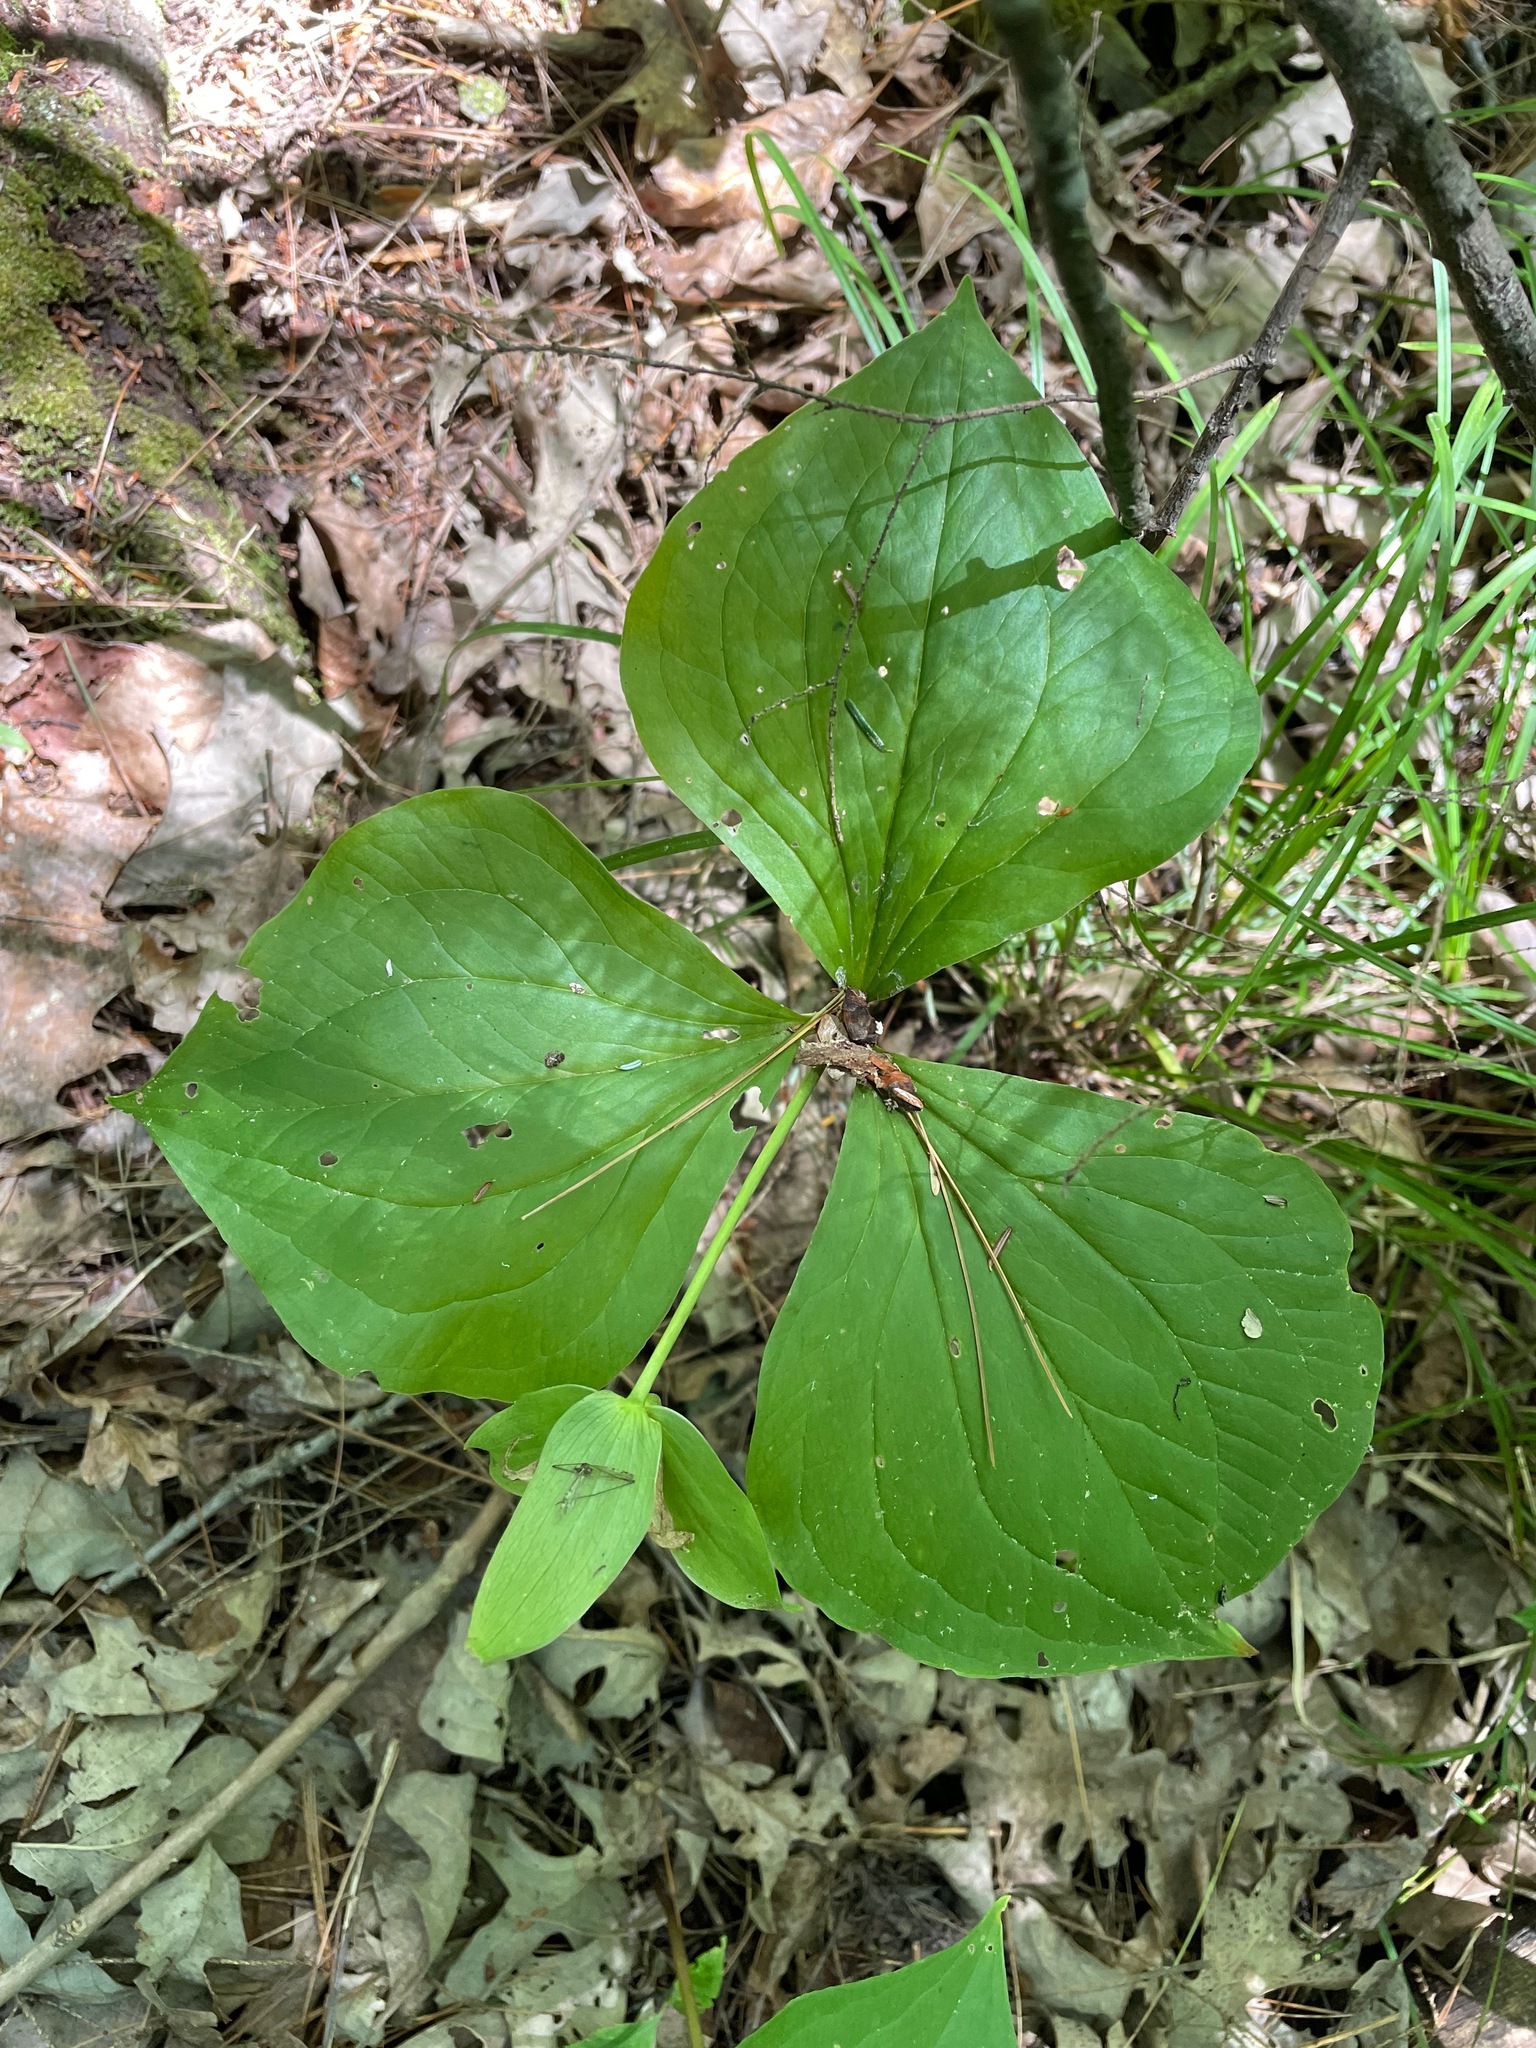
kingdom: Plantae
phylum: Tracheophyta
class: Liliopsida
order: Liliales
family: Melanthiaceae
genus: Trillium
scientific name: Trillium grandiflorum
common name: Great white trillium
